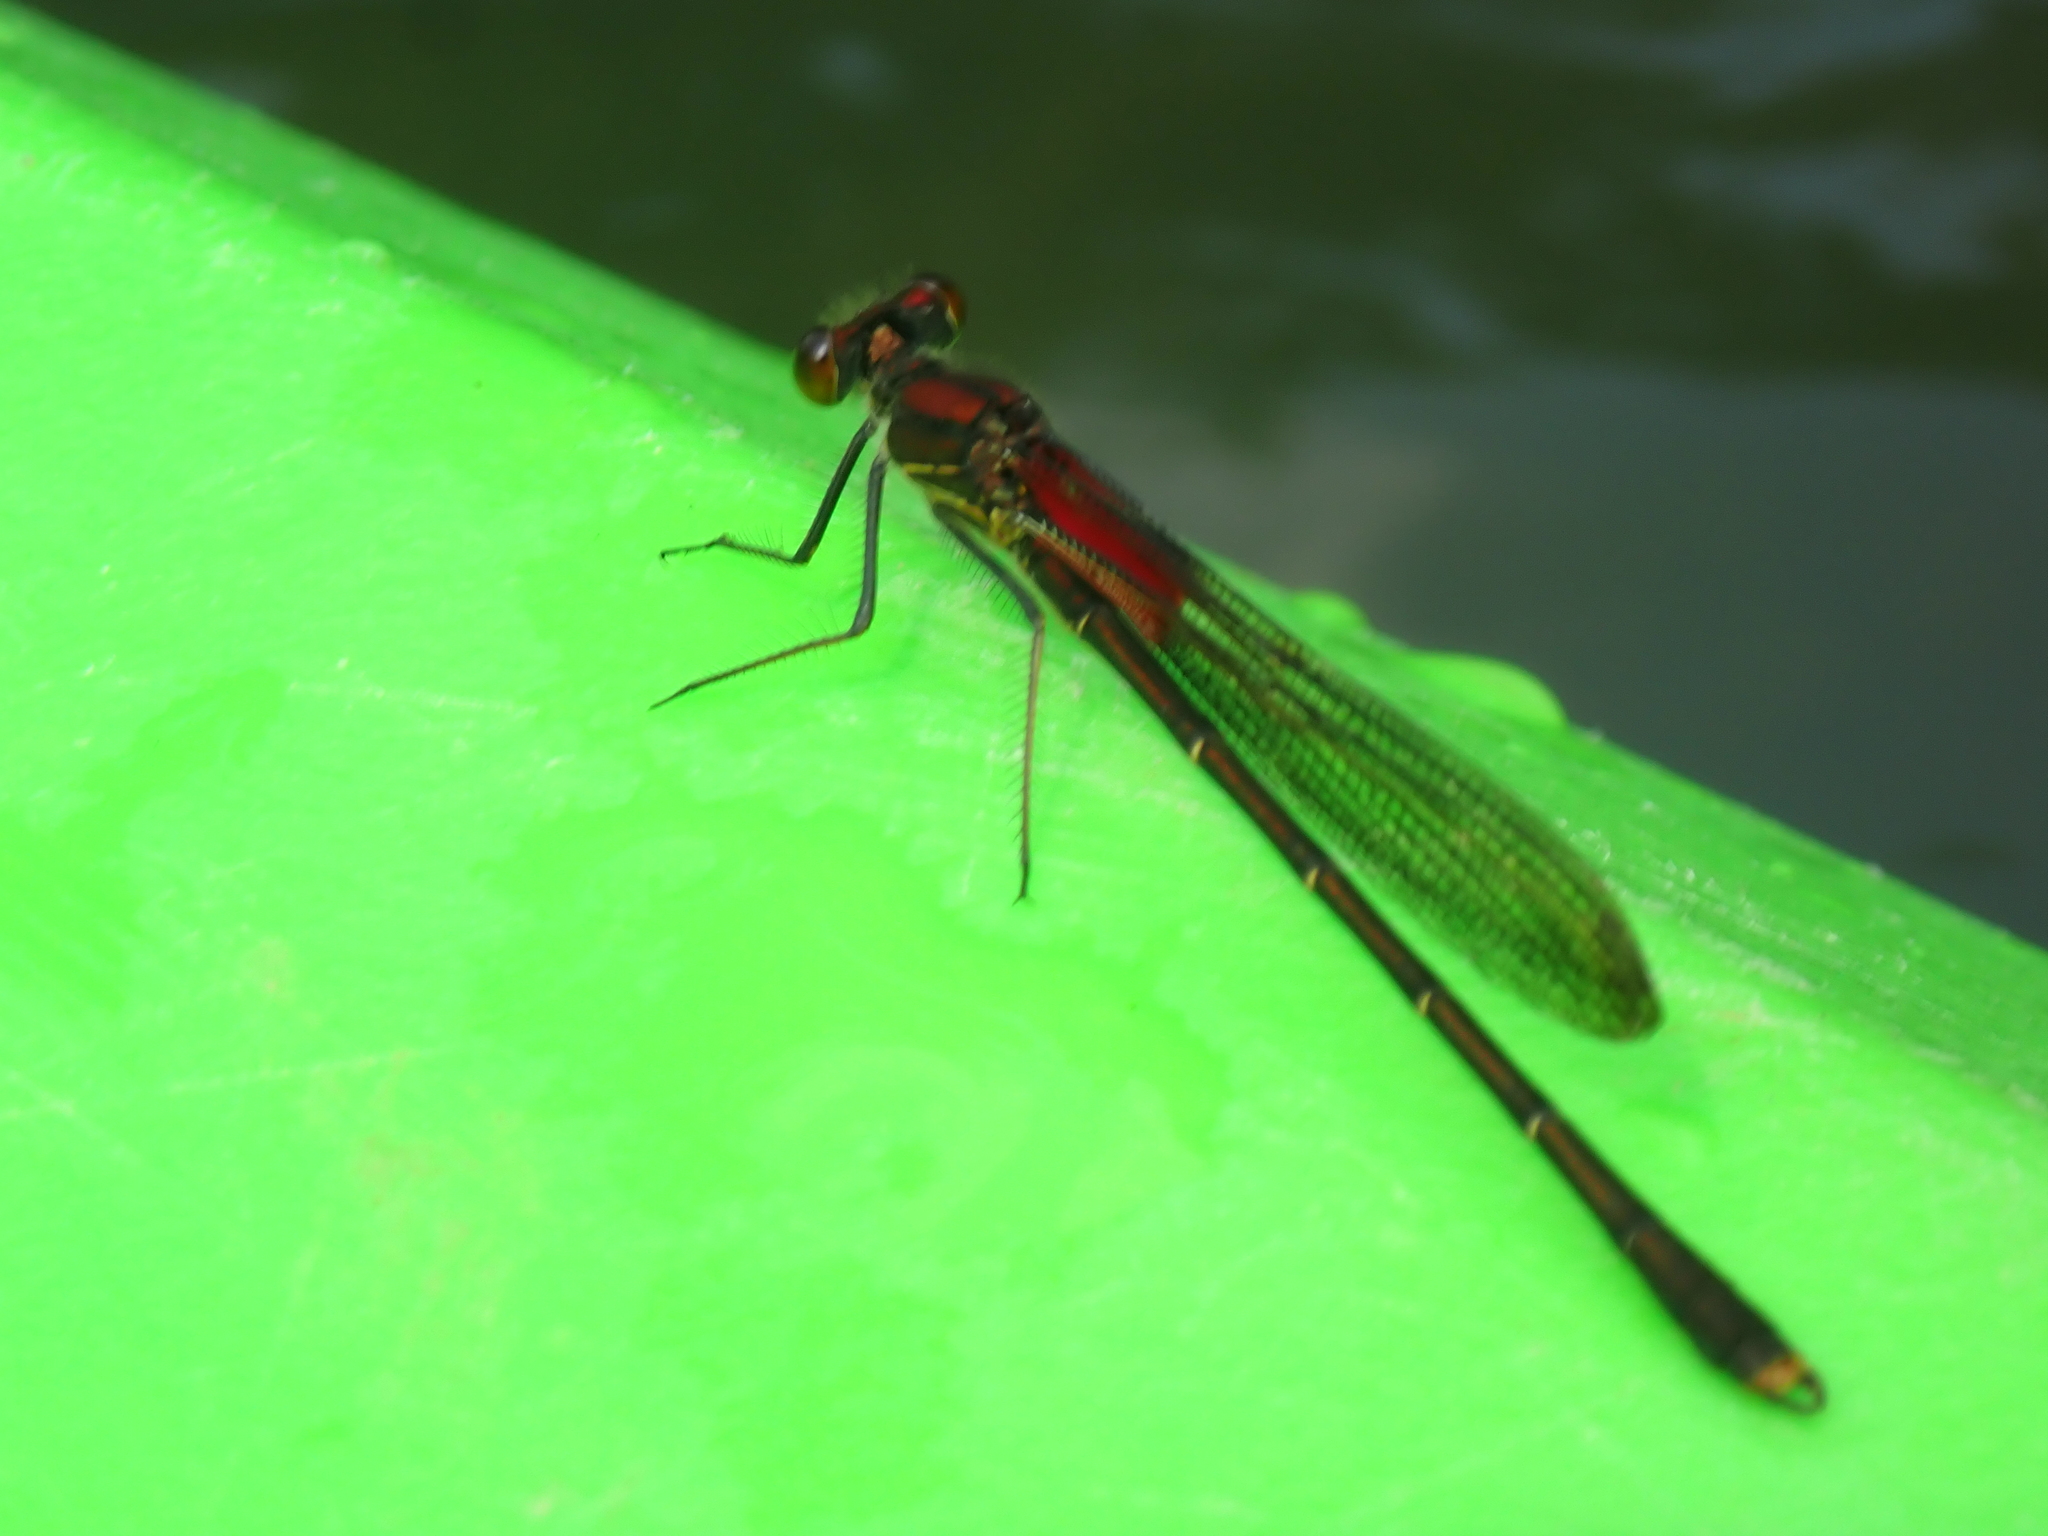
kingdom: Animalia
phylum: Arthropoda
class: Insecta
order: Odonata
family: Calopterygidae
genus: Hetaerina
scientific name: Hetaerina americana
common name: American rubyspot
